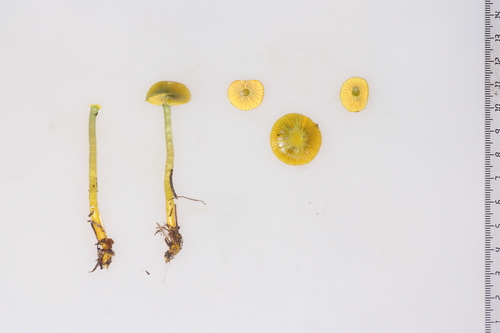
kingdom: Fungi
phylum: Basidiomycota
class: Agaricomycetes
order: Agaricales
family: Hygrophoraceae
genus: Gliophorus
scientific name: Gliophorus psittacinus
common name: Parrot wax-cap
